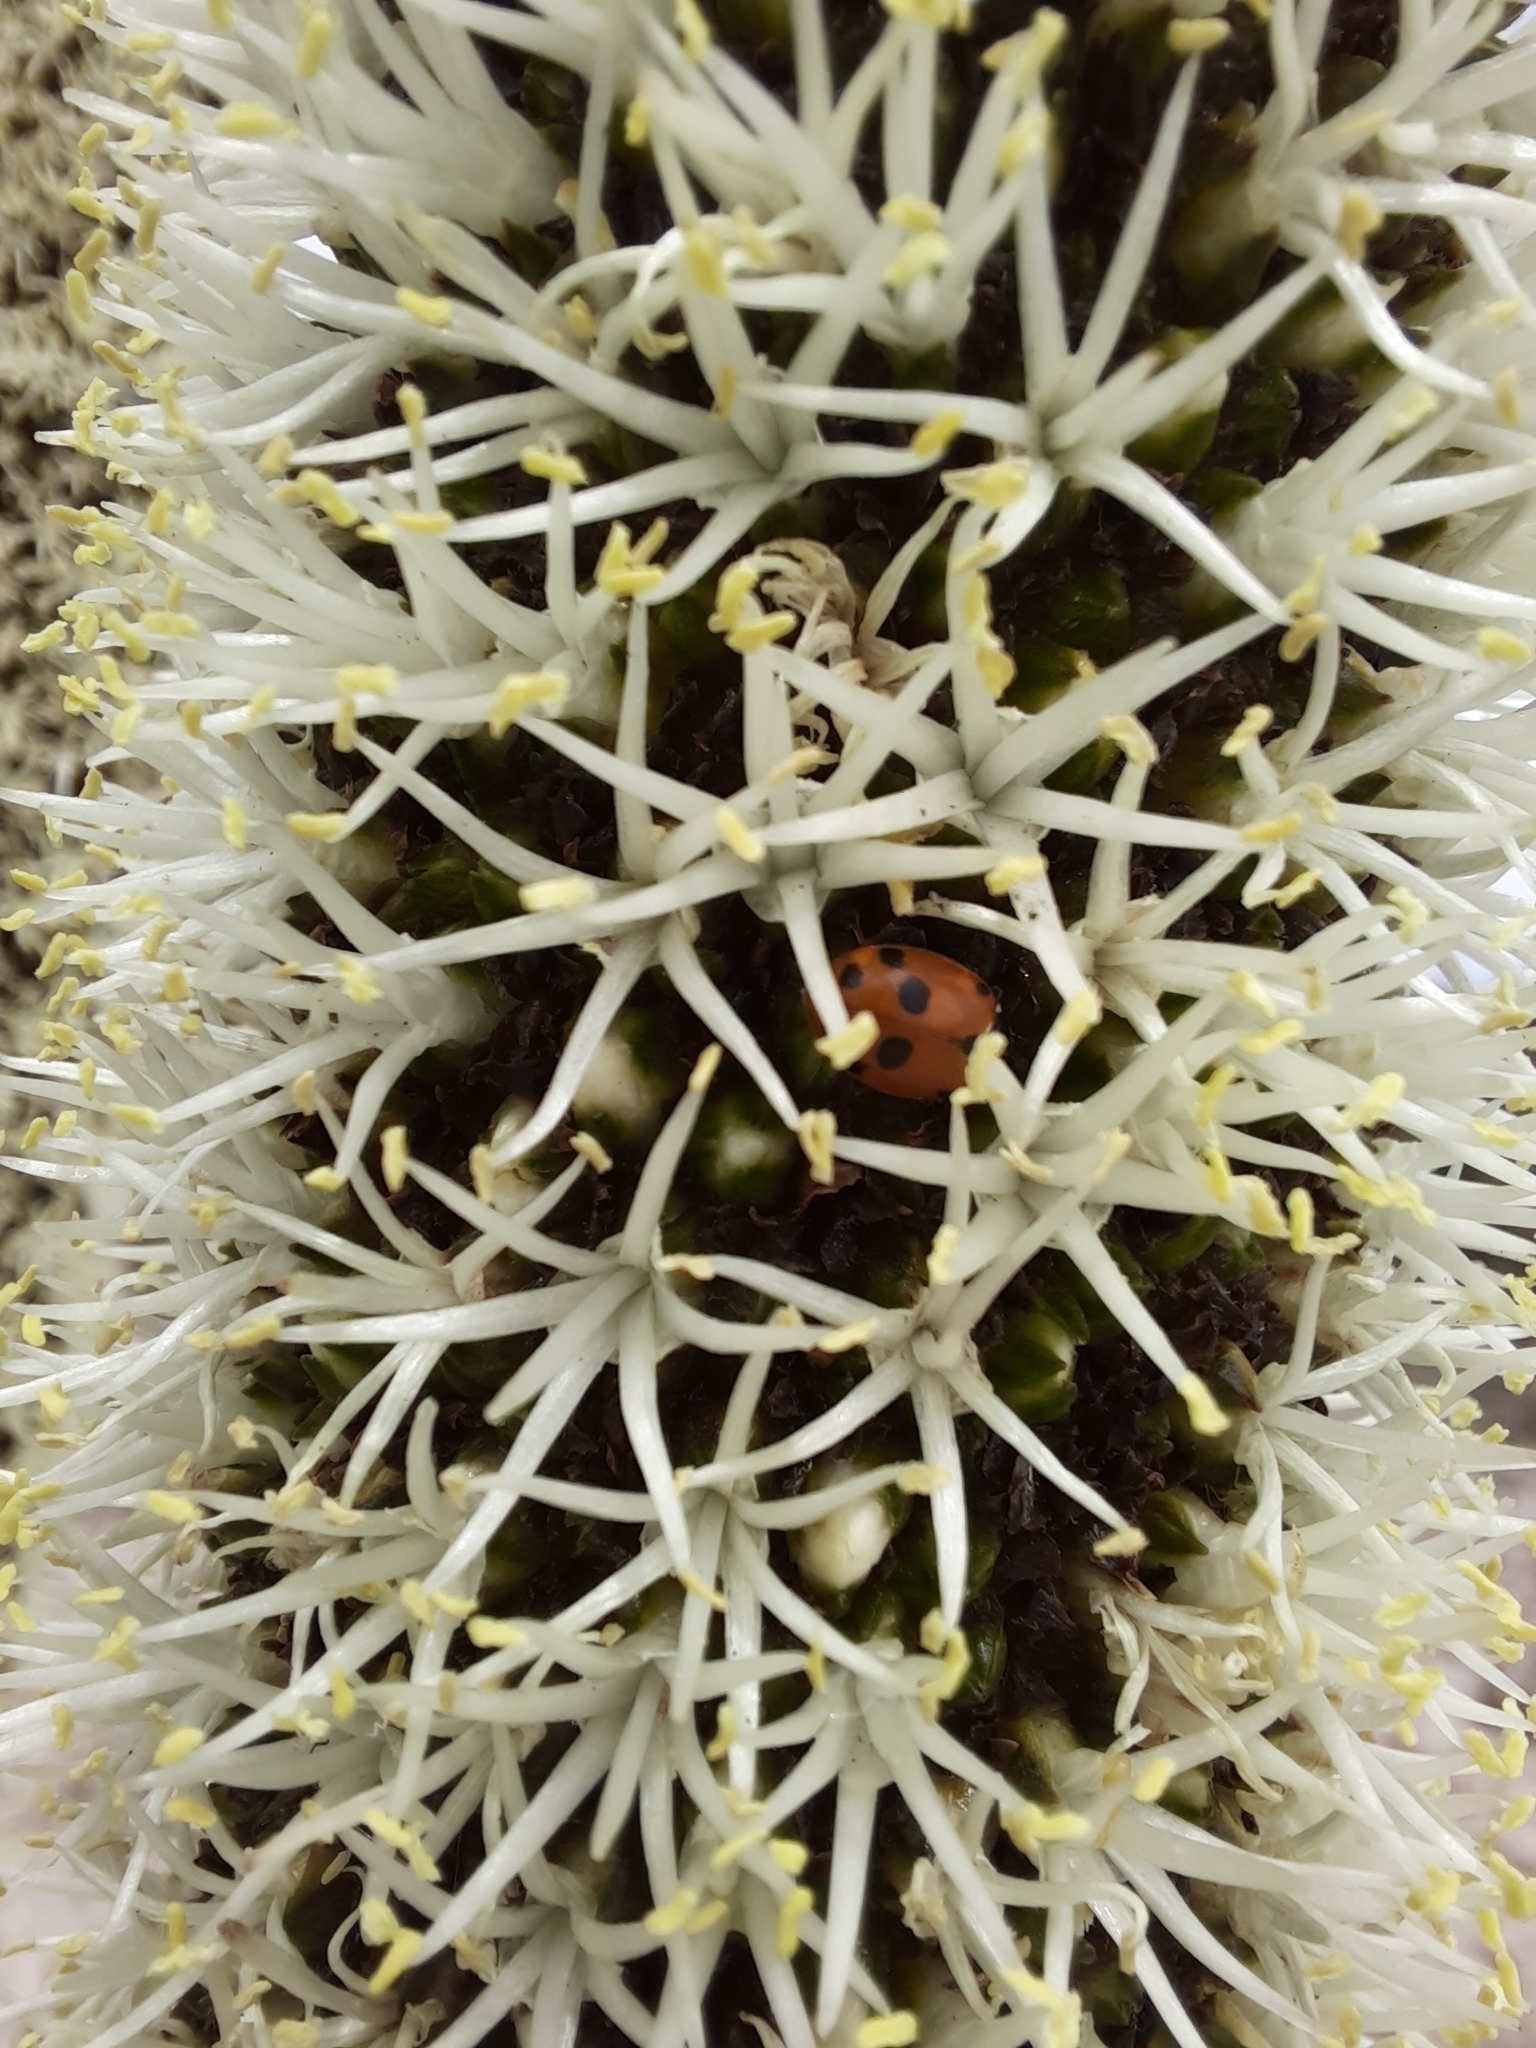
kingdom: Animalia
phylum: Arthropoda
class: Insecta
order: Coleoptera
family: Coccinellidae
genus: Hippodamia
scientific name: Hippodamia variegata
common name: Ladybird beetle
